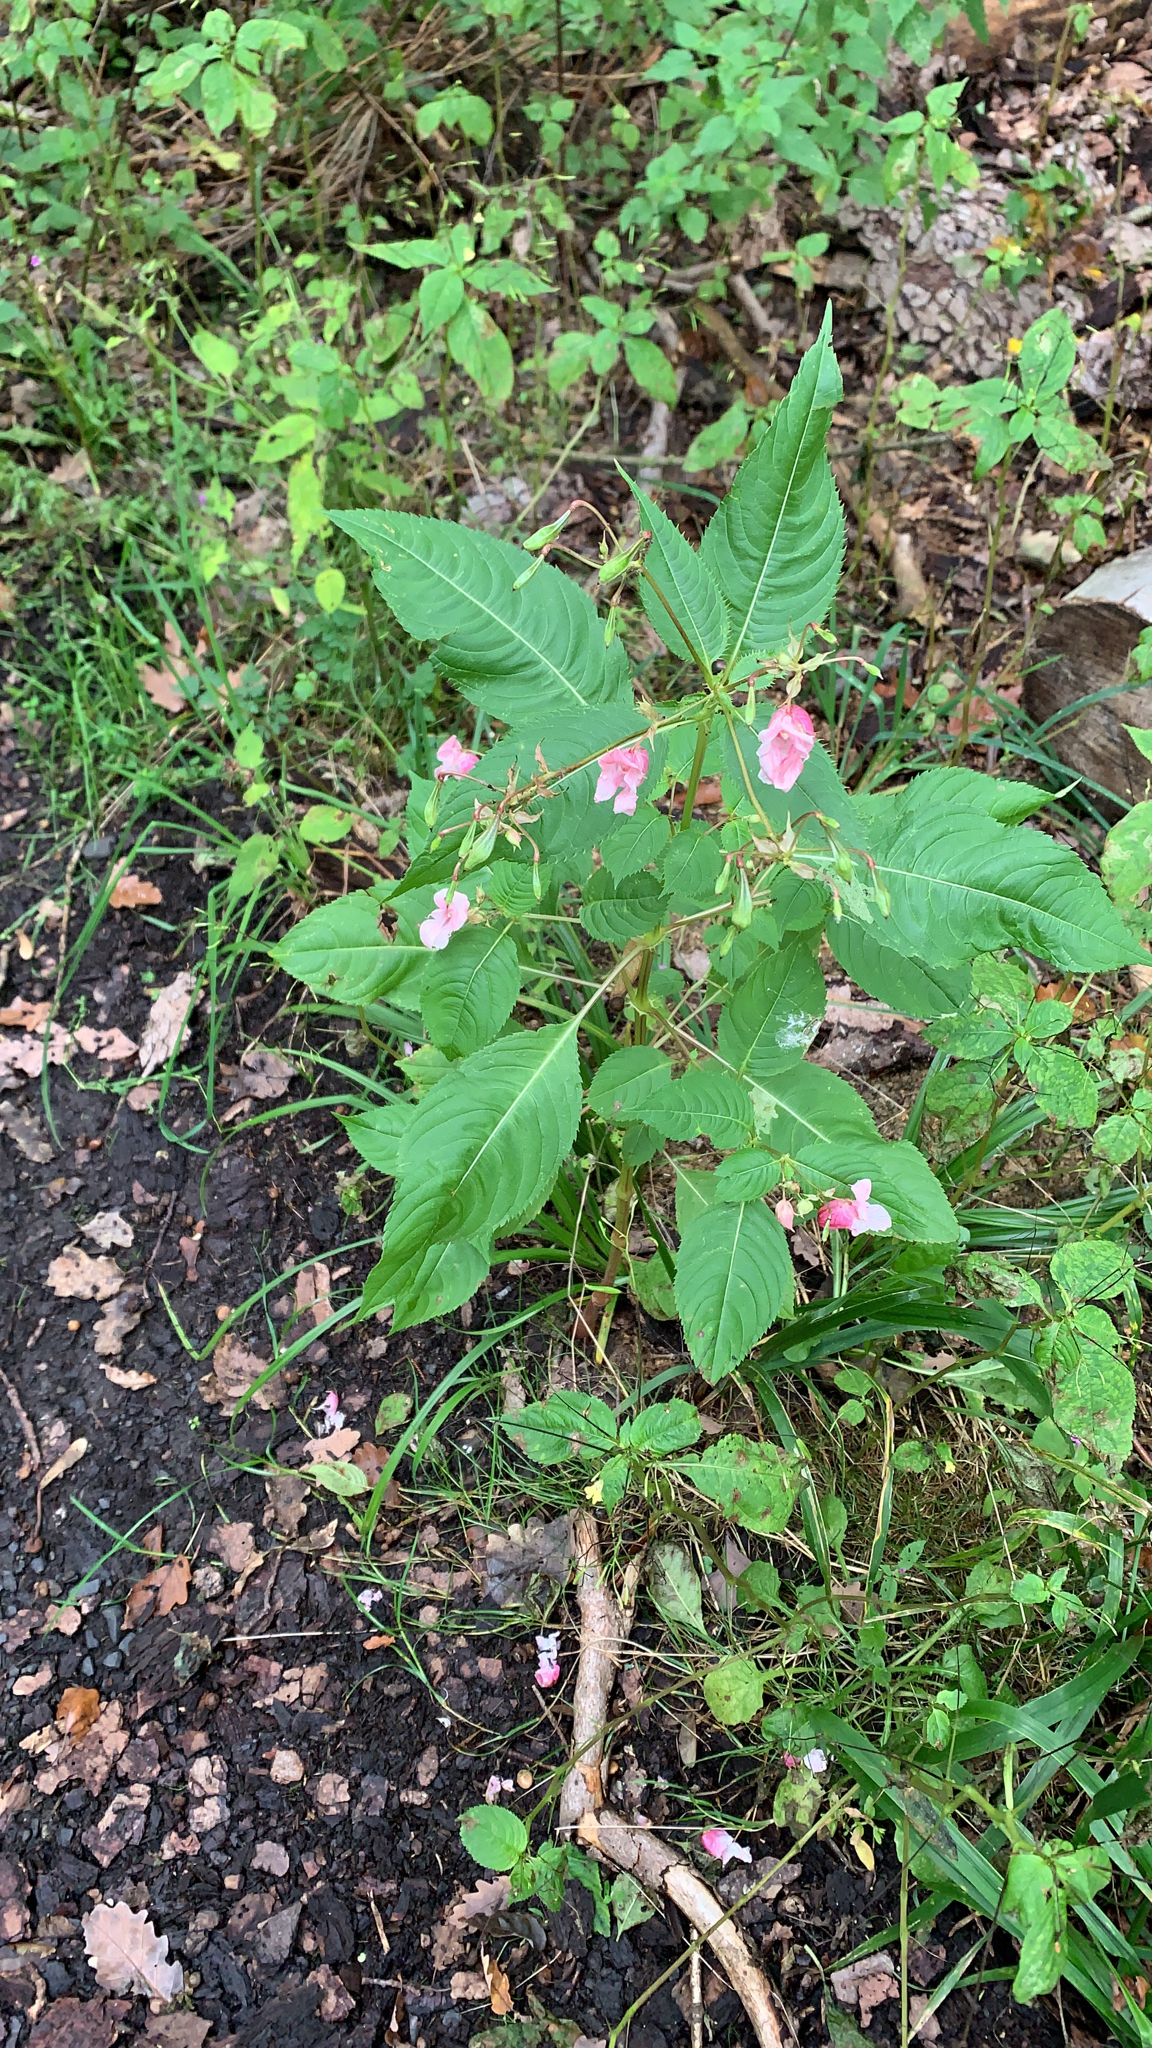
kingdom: Plantae
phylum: Tracheophyta
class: Magnoliopsida
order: Ericales
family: Balsaminaceae
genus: Impatiens
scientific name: Impatiens glandulifera
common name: Himalayan balsam
